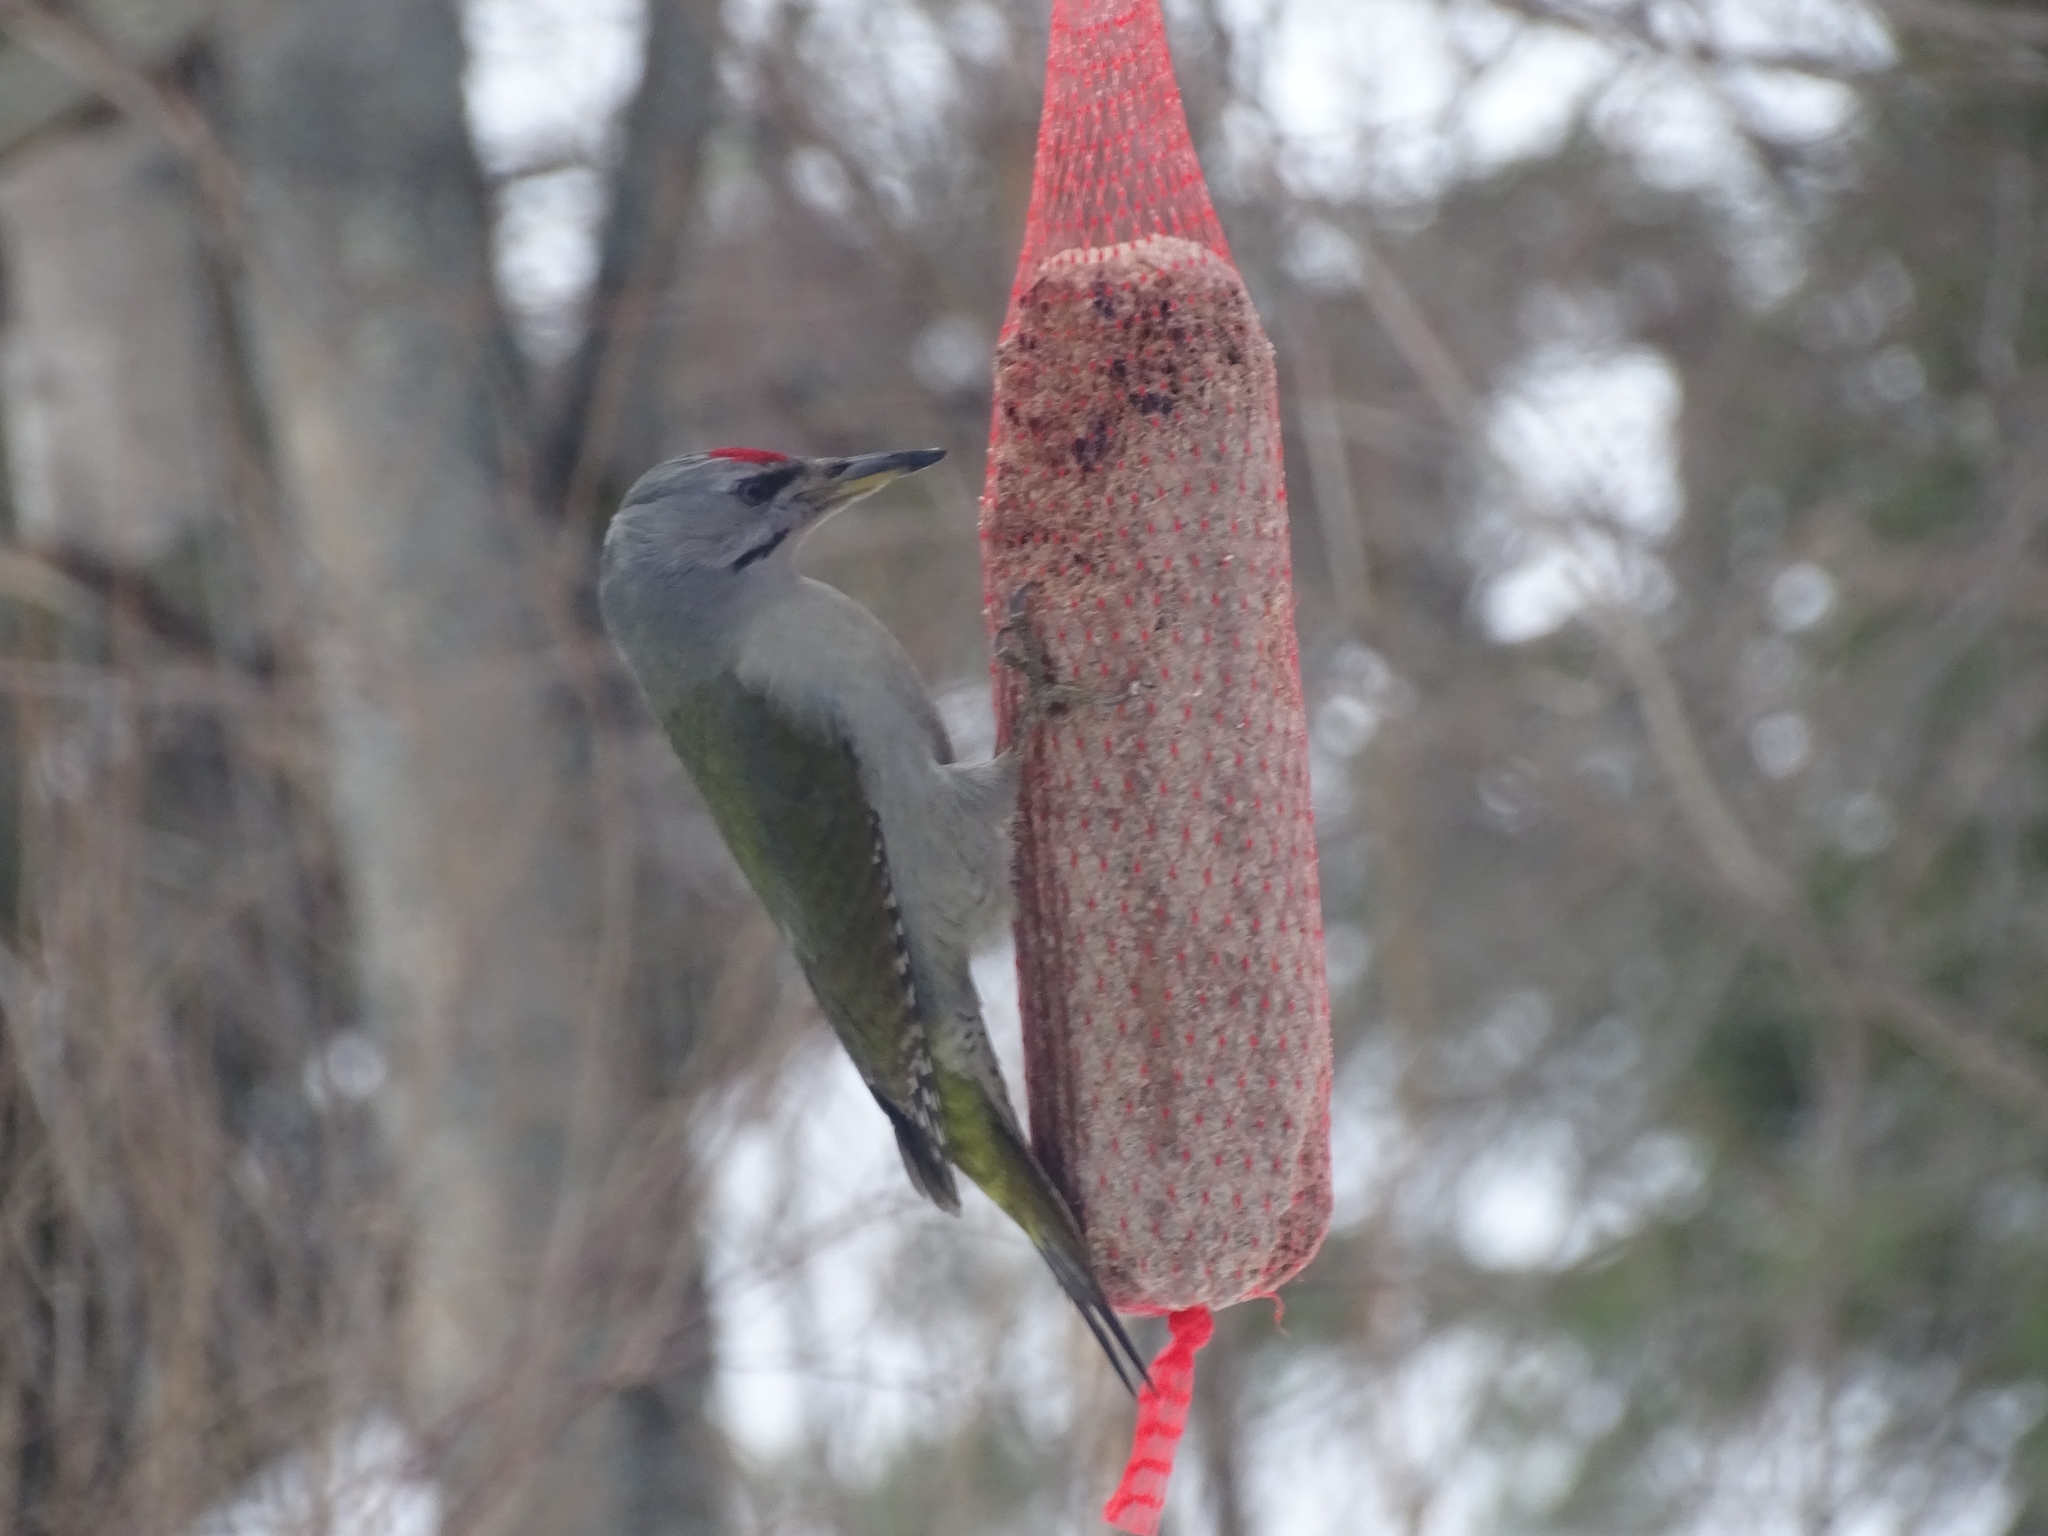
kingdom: Animalia
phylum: Chordata
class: Aves
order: Piciformes
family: Picidae
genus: Picus
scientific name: Picus canus
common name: Grey-headed woodpecker
